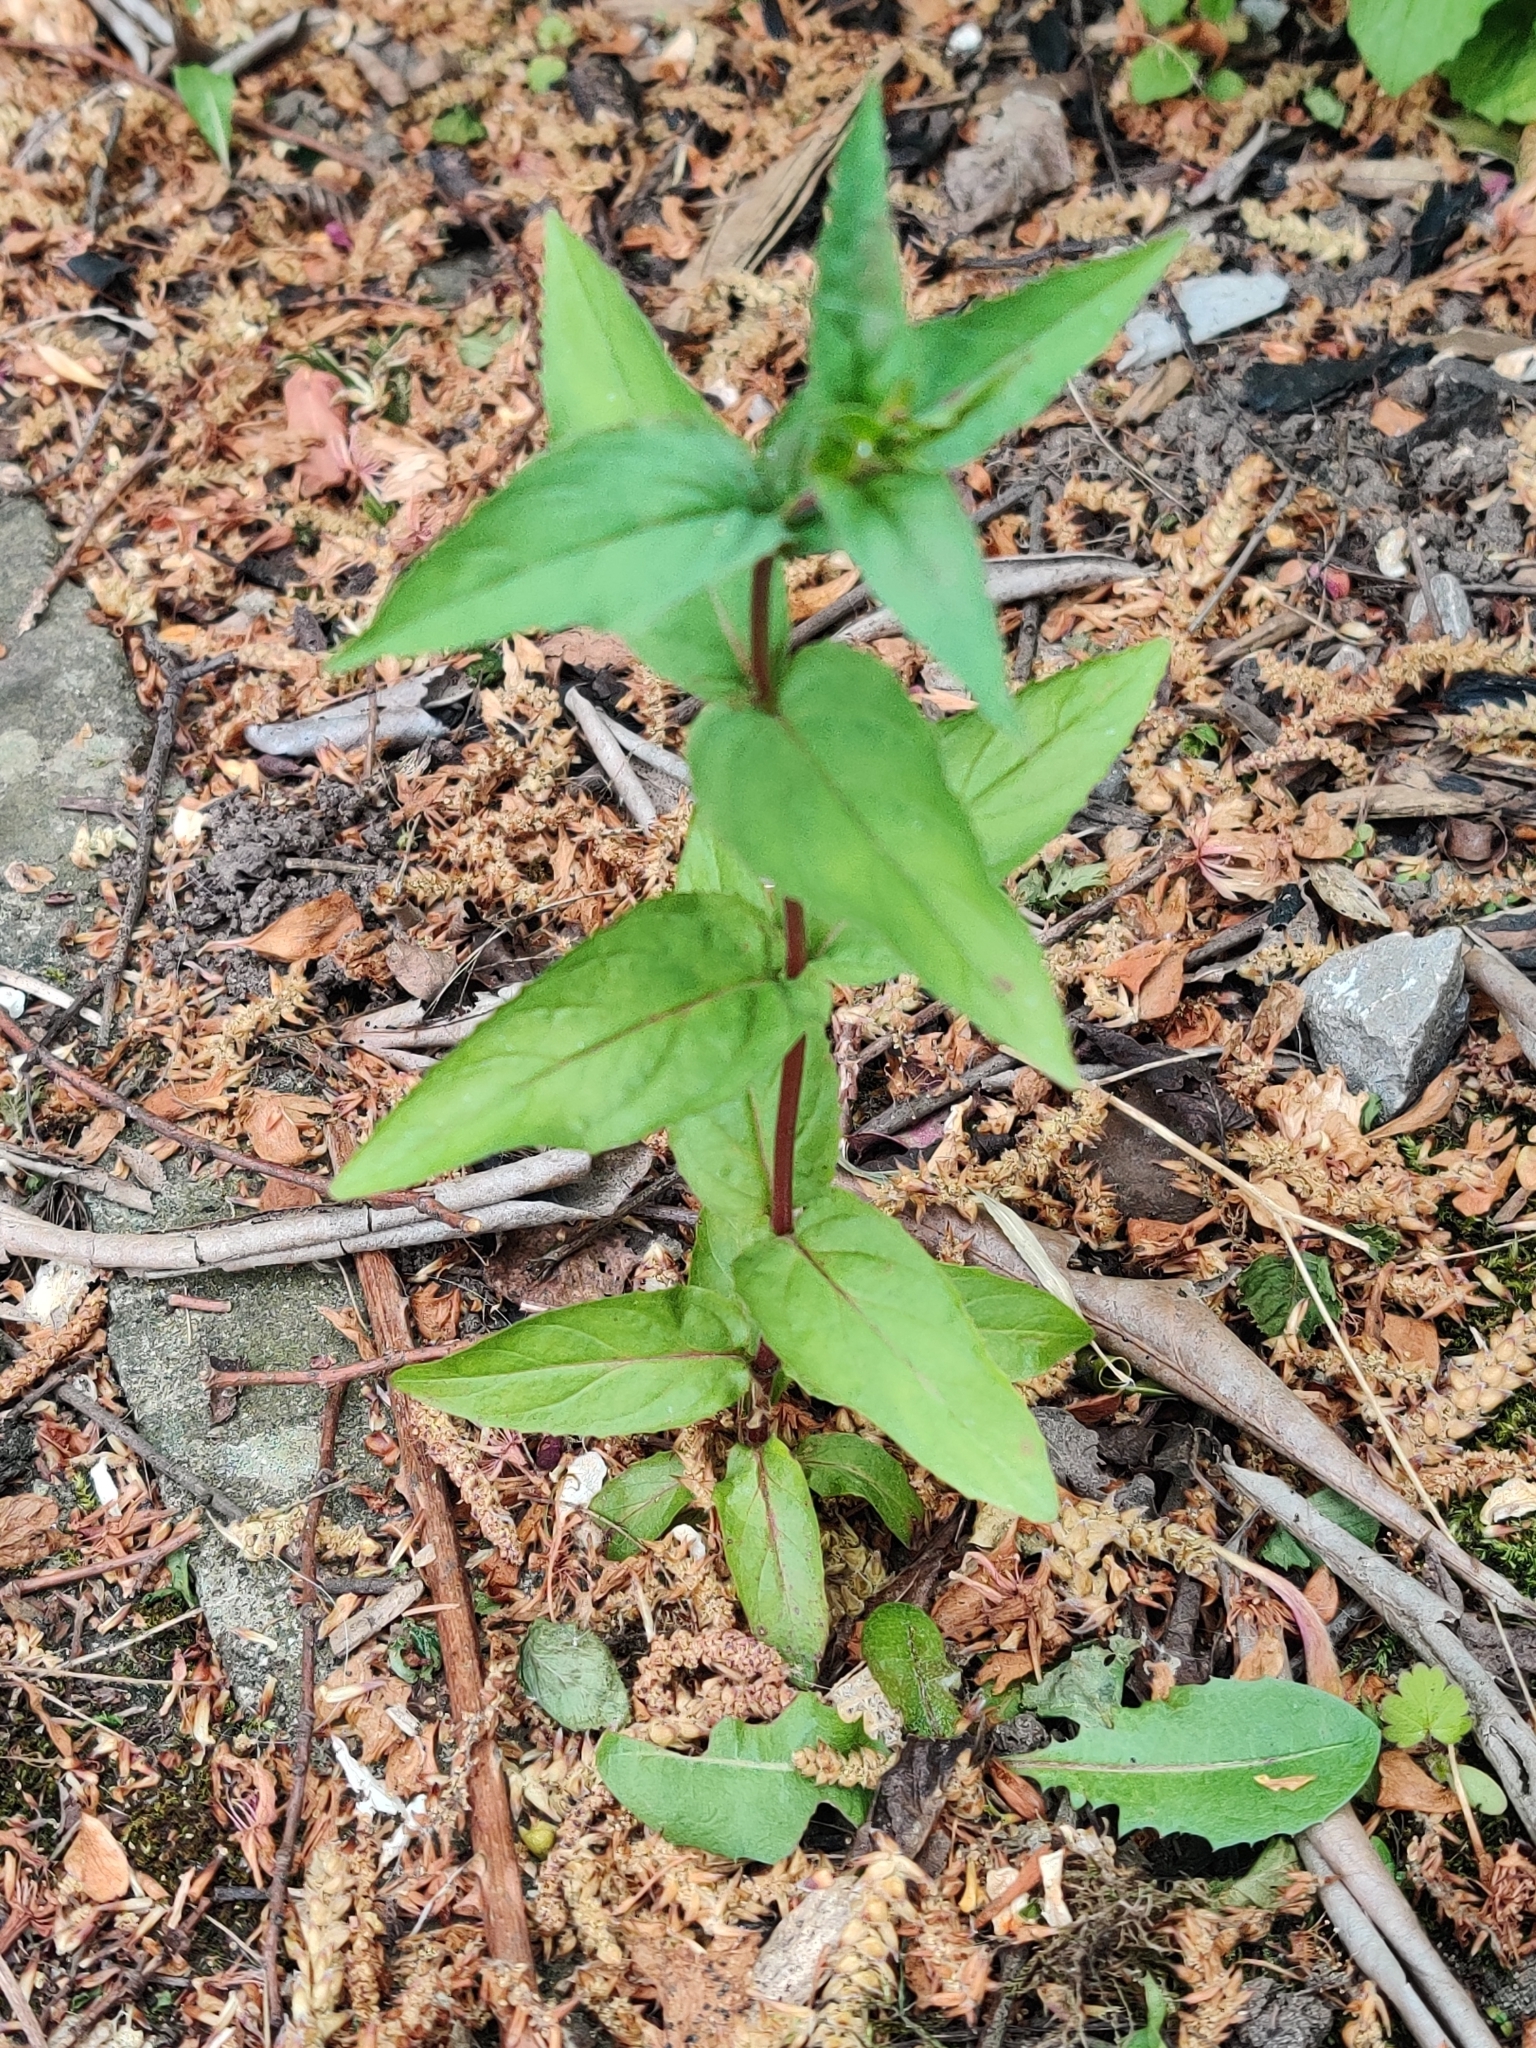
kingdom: Plantae
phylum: Tracheophyta
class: Magnoliopsida
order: Myrtales
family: Onagraceae
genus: Epilobium
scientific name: Epilobium montanum
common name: Broad-leaved willowherb
